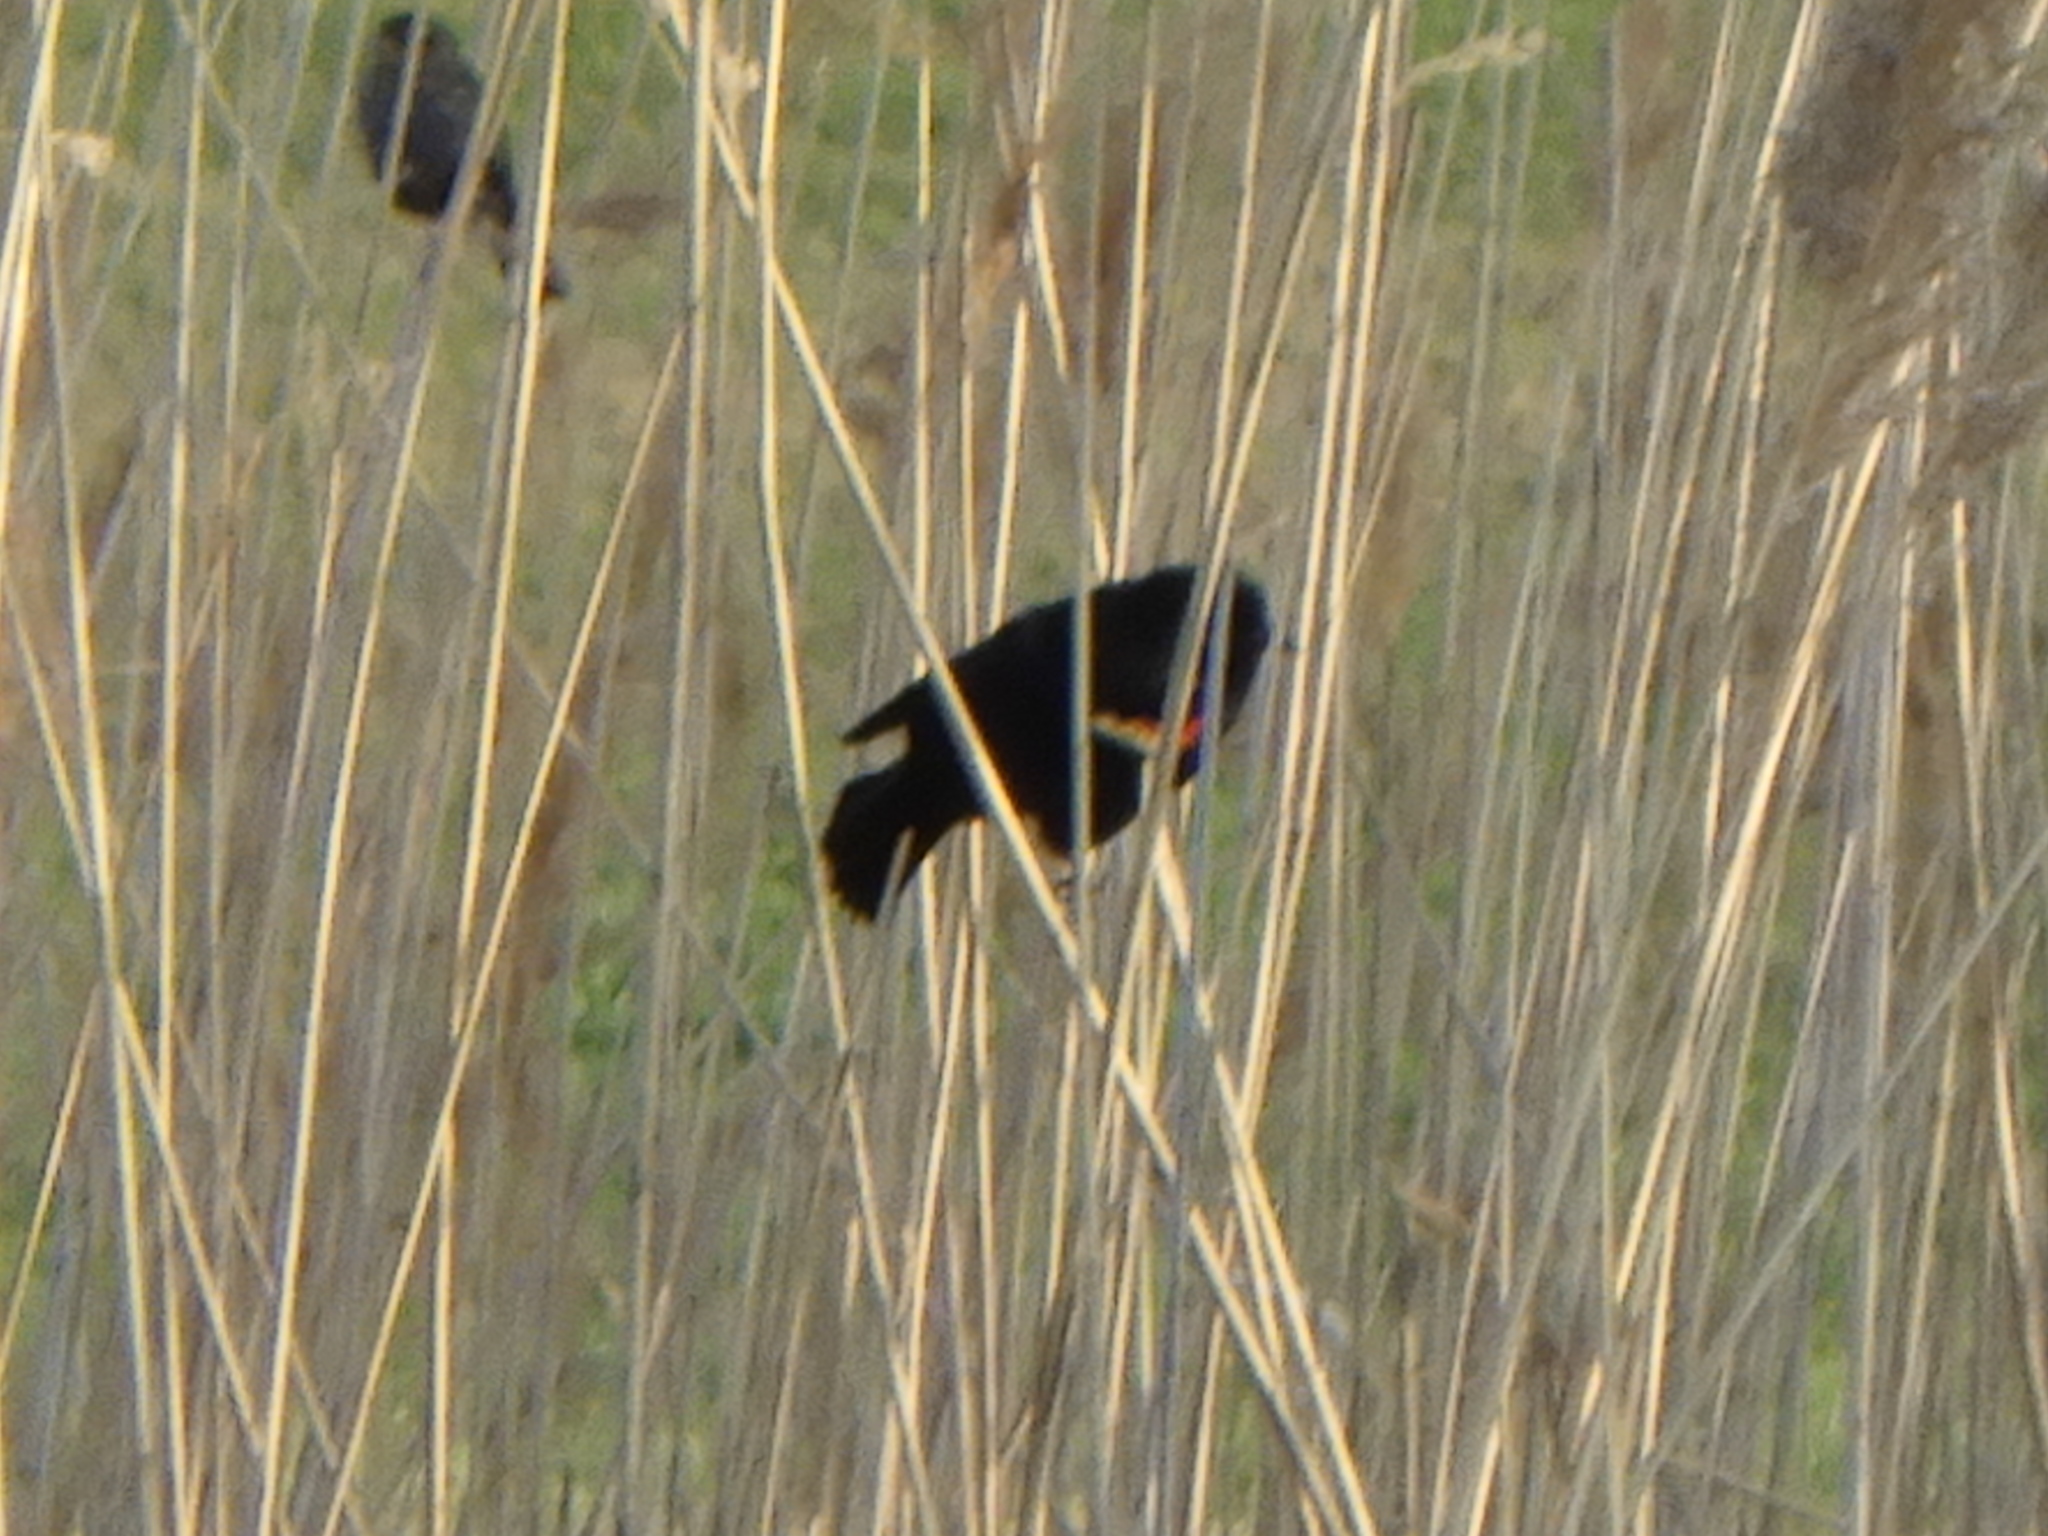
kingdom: Animalia
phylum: Chordata
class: Aves
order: Passeriformes
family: Icteridae
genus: Agelaius
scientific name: Agelaius phoeniceus
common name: Red-winged blackbird
